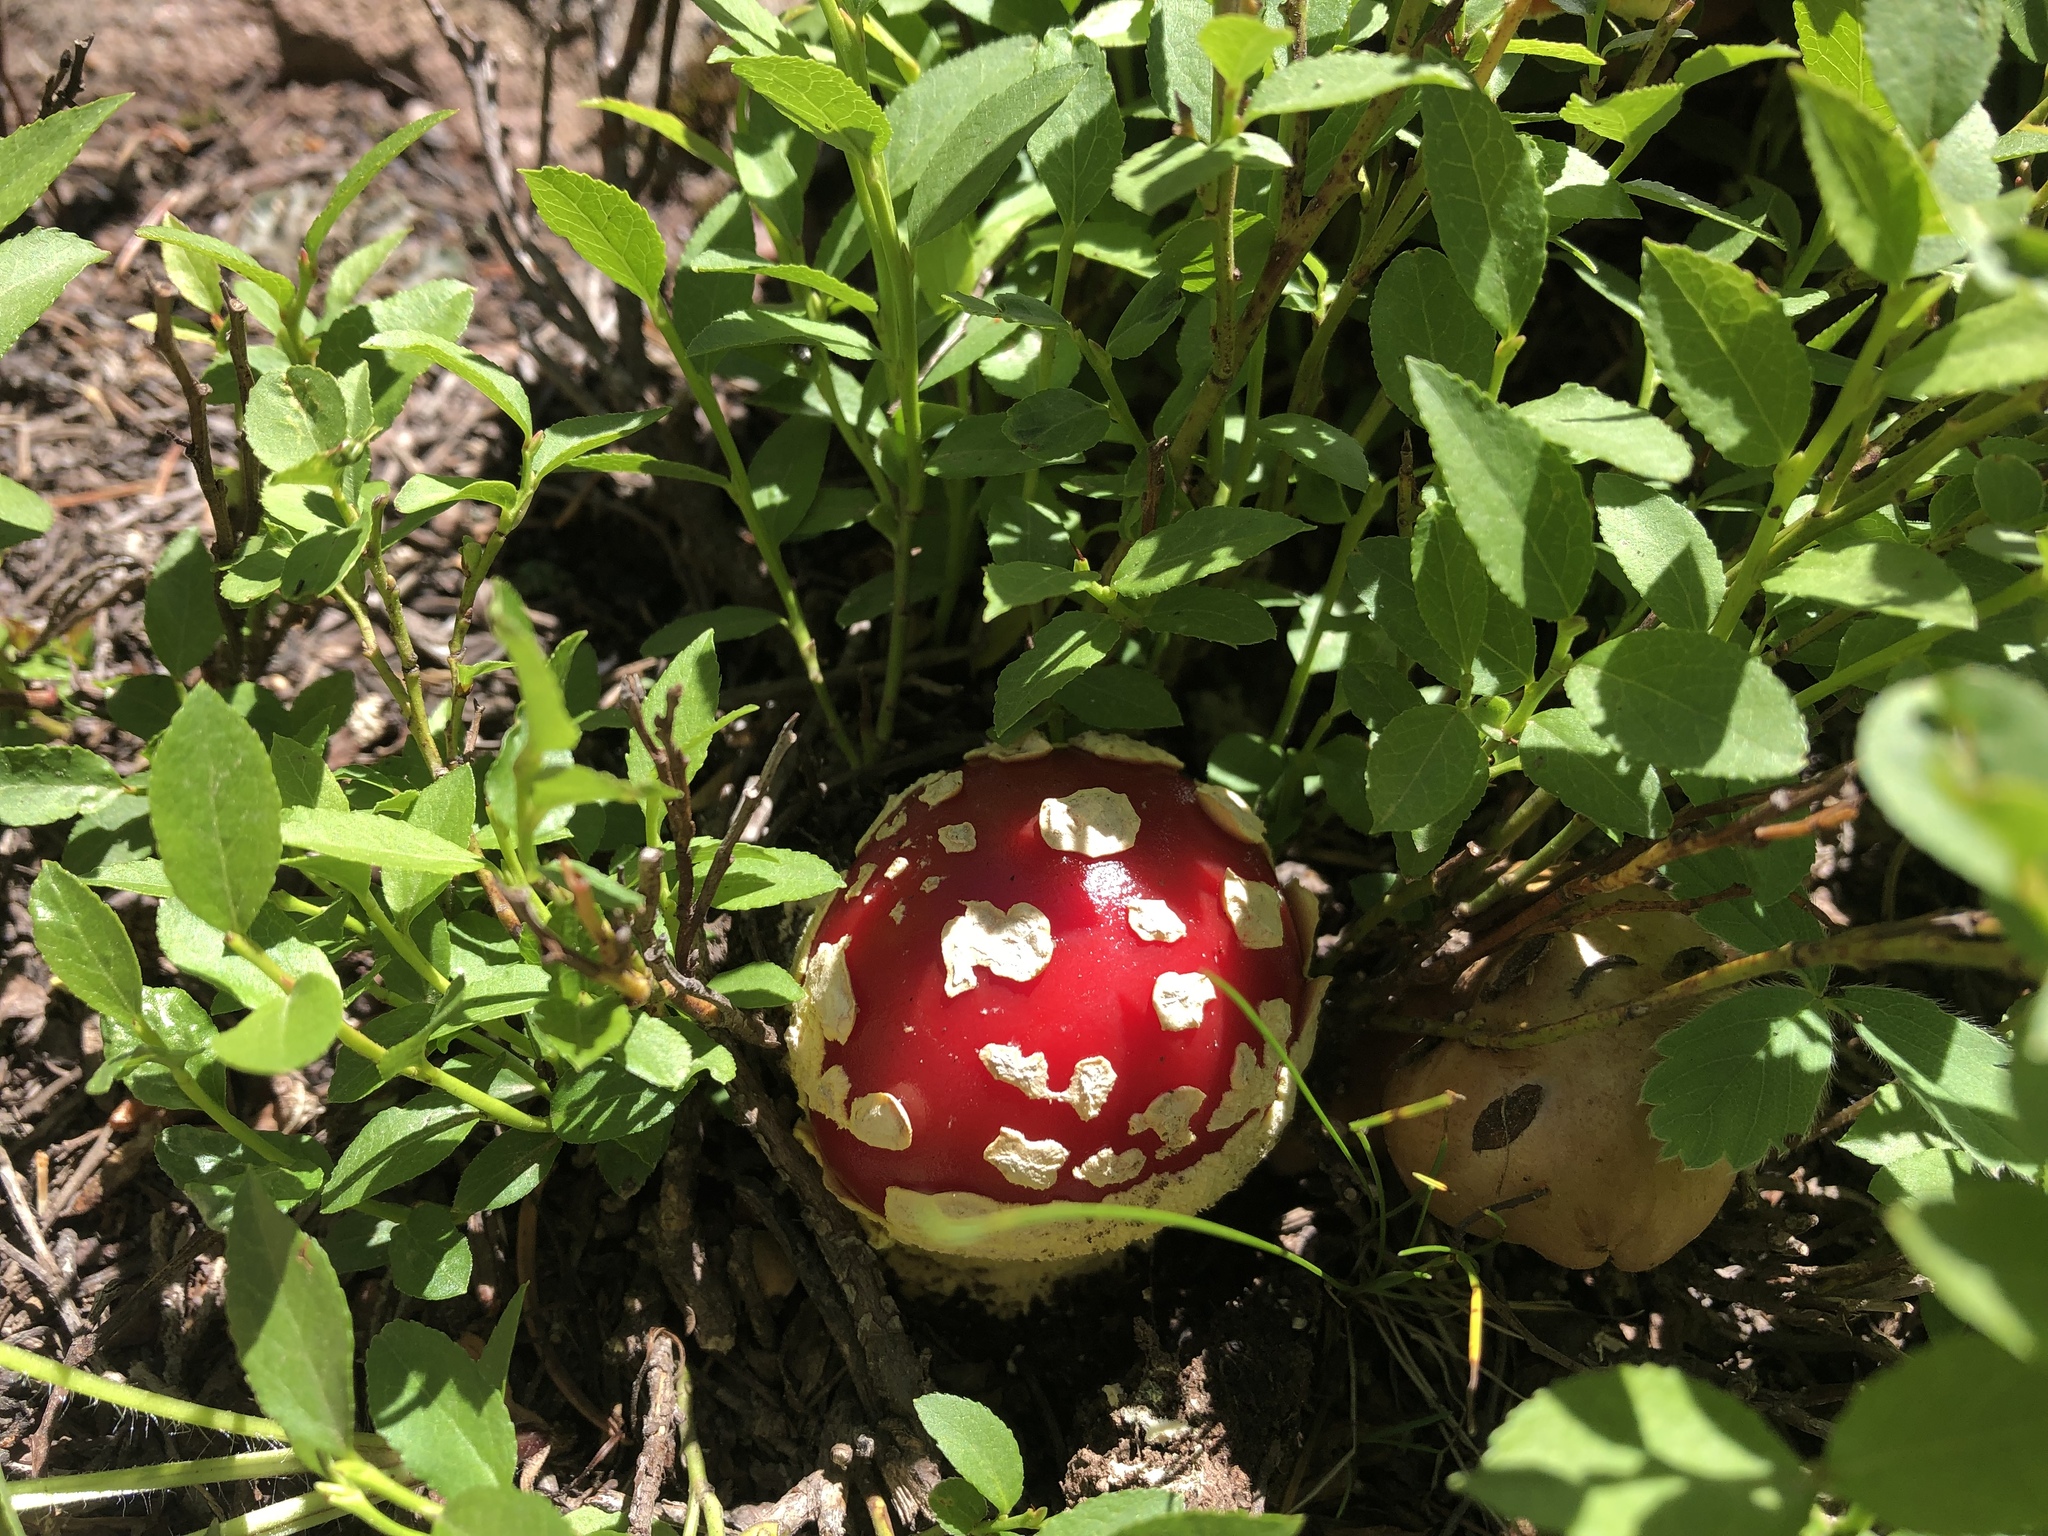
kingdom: Fungi
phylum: Basidiomycota
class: Agaricomycetes
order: Agaricales
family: Amanitaceae
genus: Amanita
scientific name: Amanita muscaria
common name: Fly agaric
